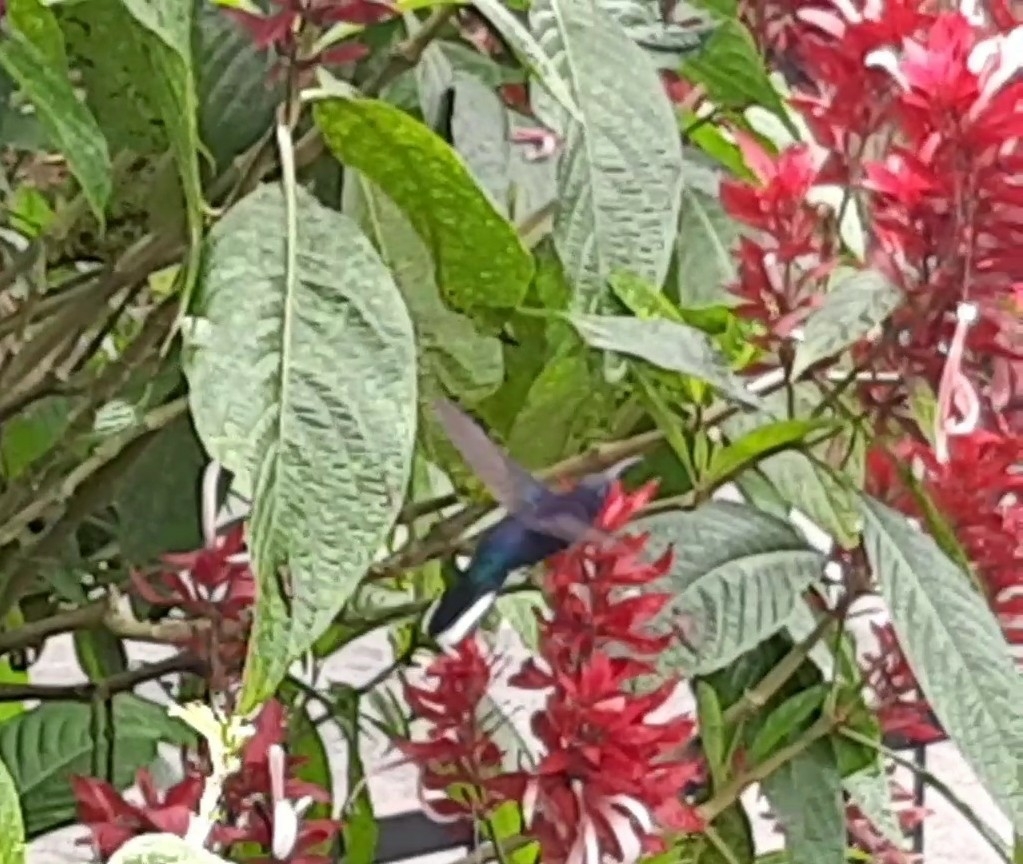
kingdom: Animalia
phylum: Chordata
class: Aves
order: Apodiformes
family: Trochilidae
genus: Campylopterus
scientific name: Campylopterus hemileucurus
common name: Violet sabrewing
